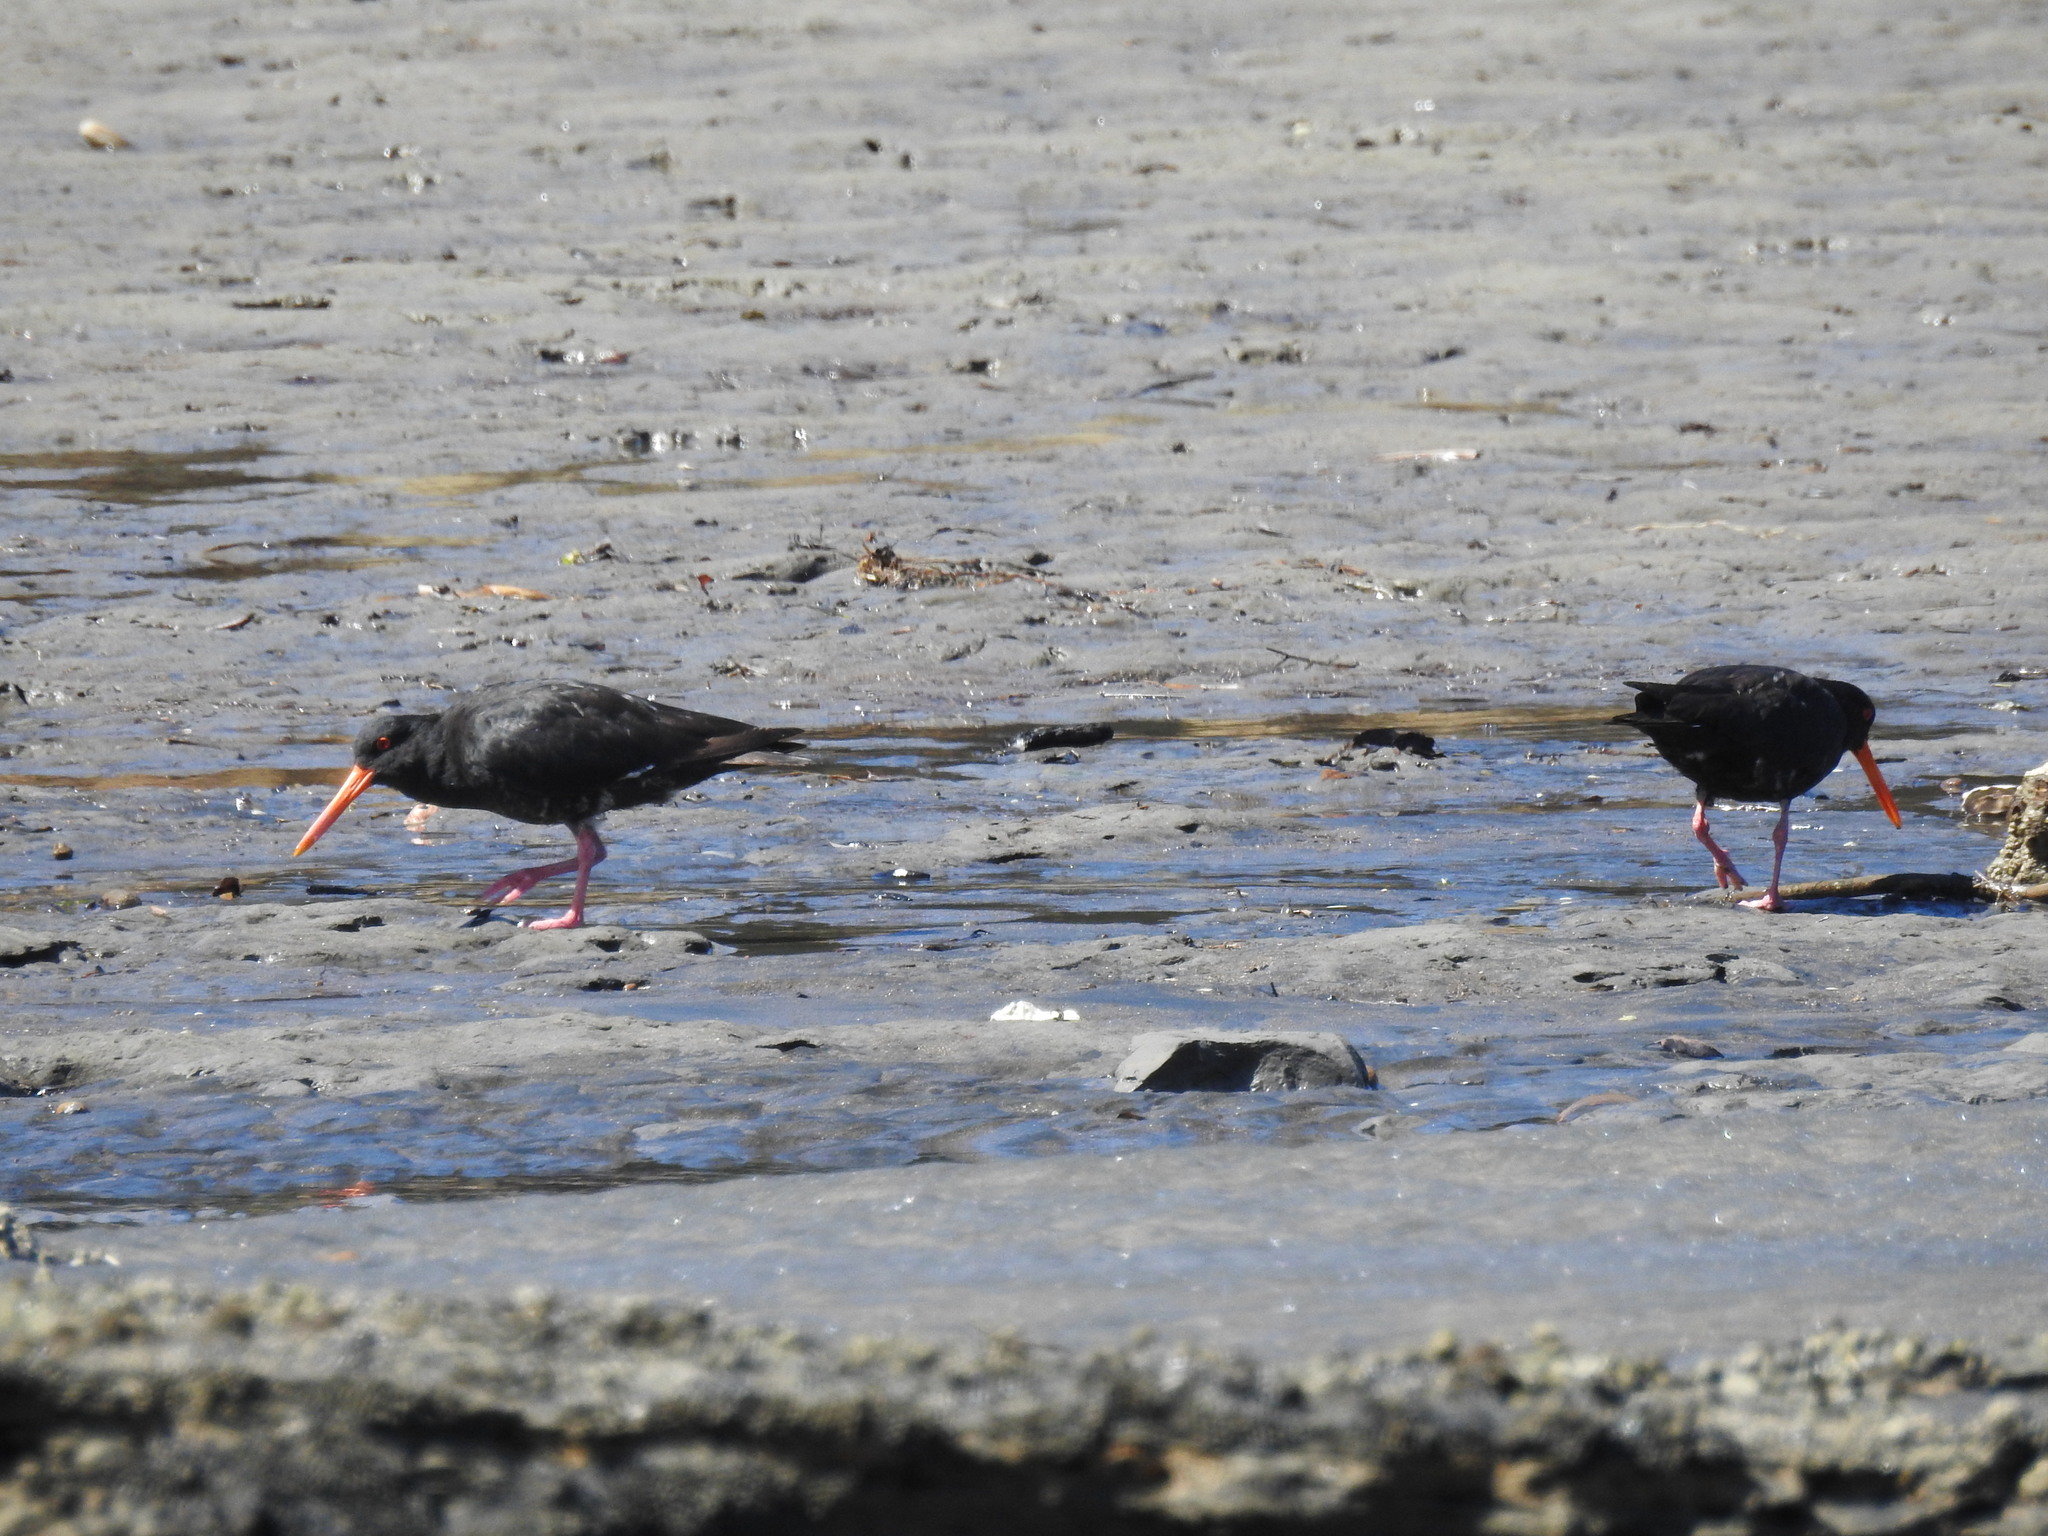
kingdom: Animalia
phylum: Chordata
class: Aves
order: Charadriiformes
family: Haematopodidae
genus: Haematopus
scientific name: Haematopus unicolor
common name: Variable oystercatcher
